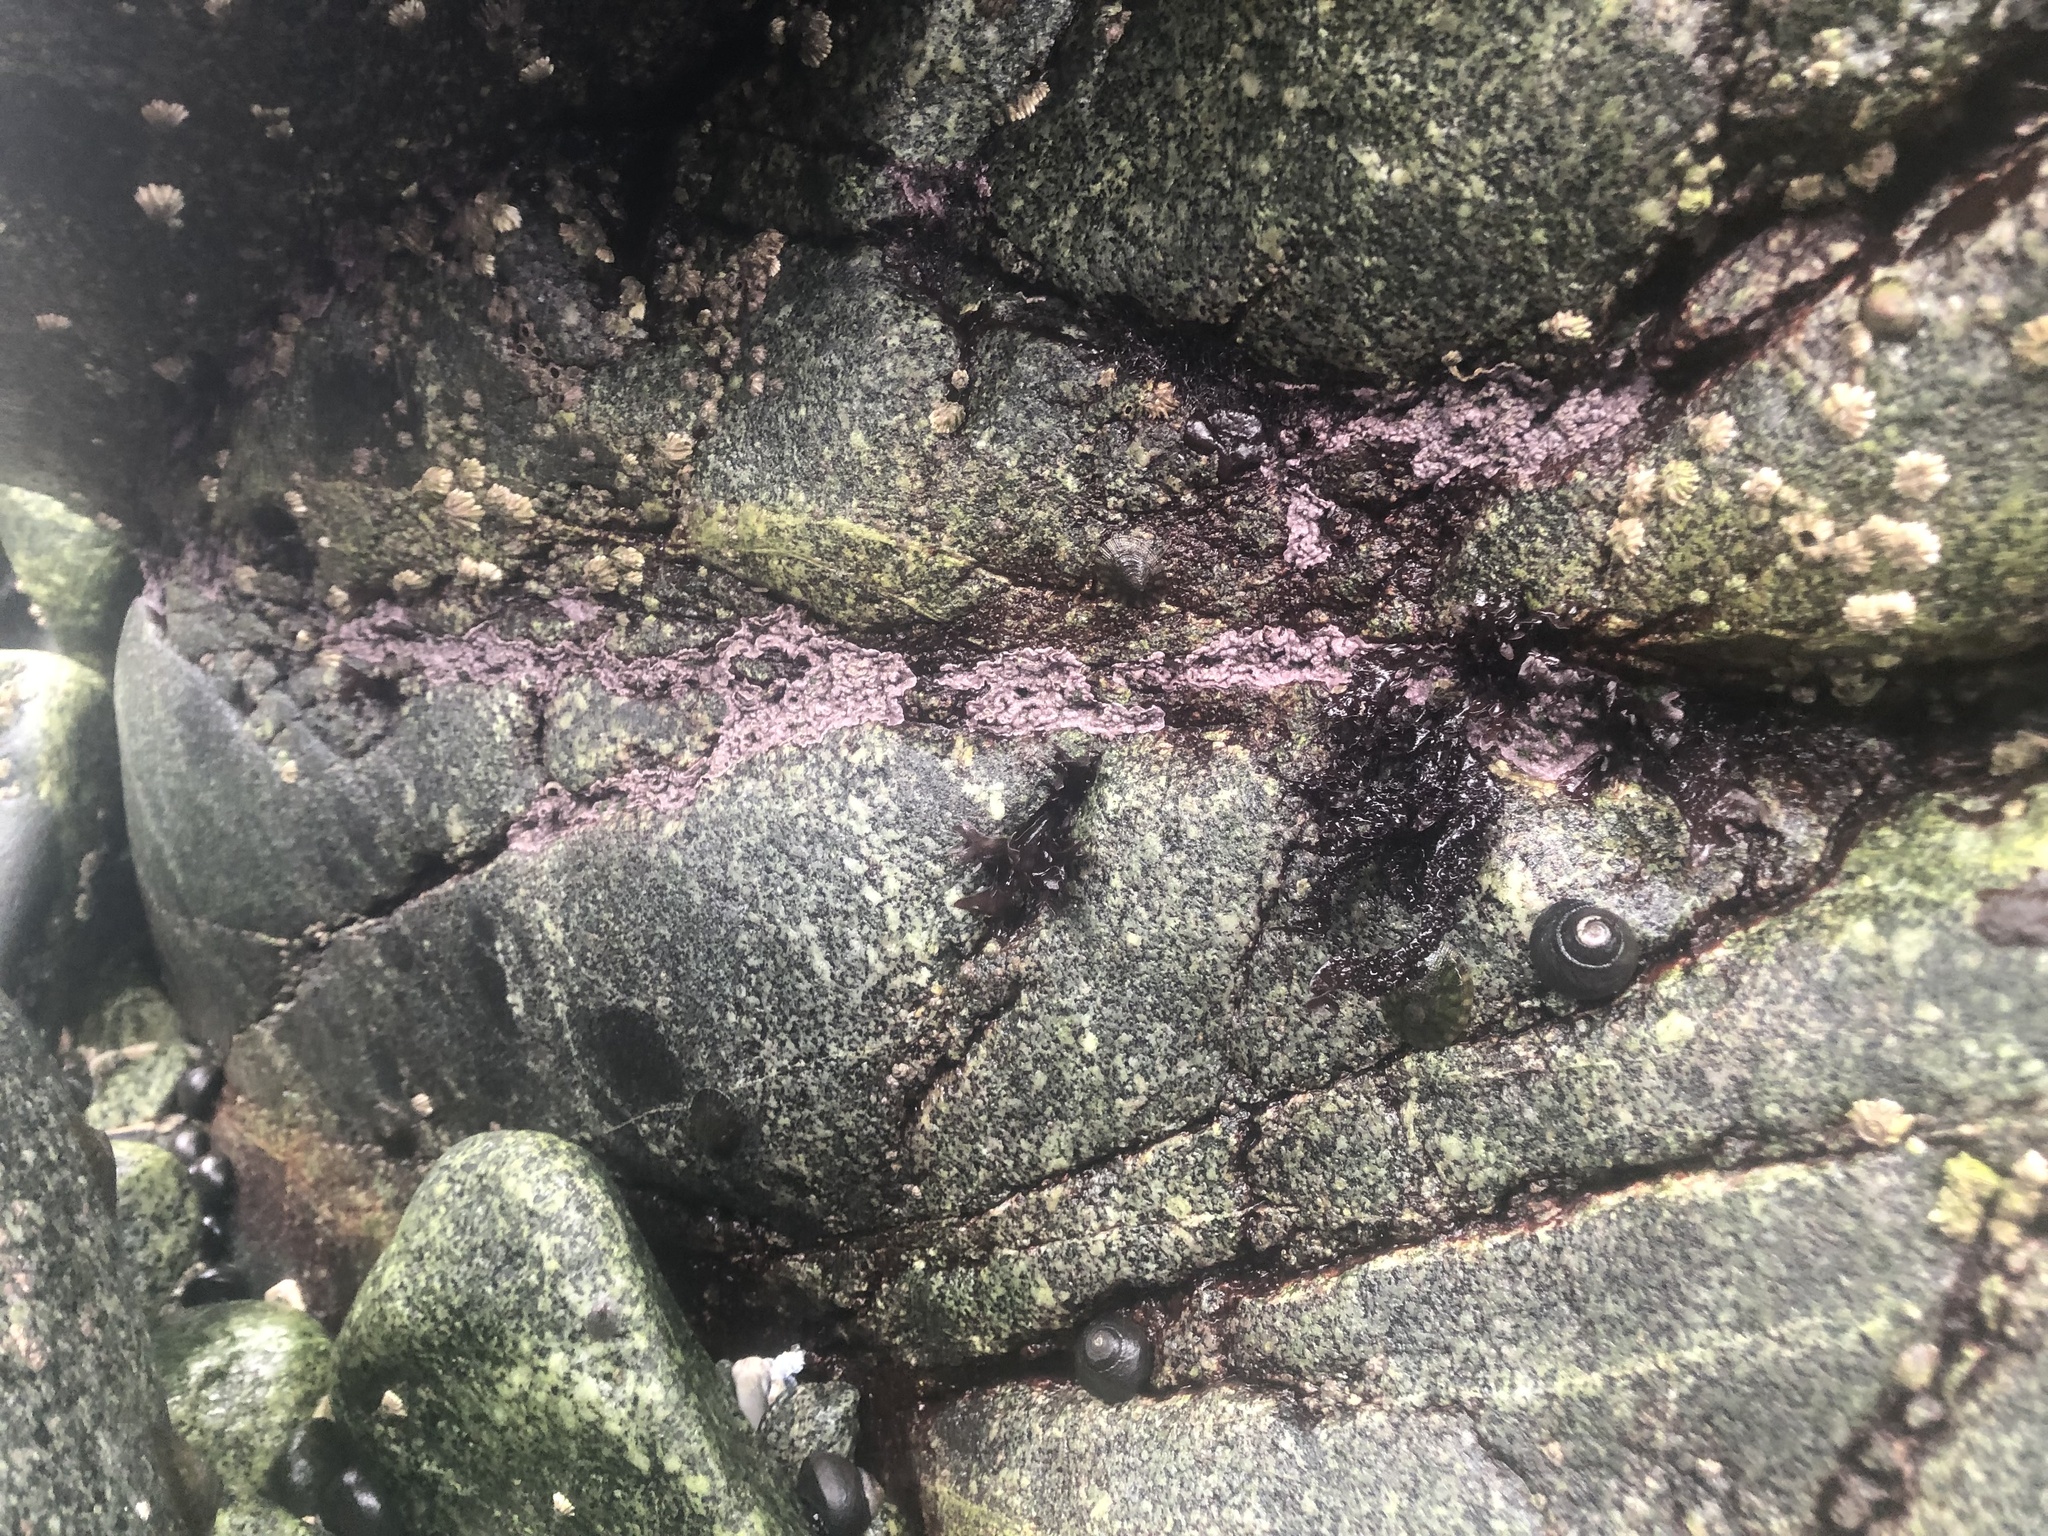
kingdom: Plantae
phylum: Rhodophyta
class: Florideophyceae
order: Corallinales
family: Corallinaceae
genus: Chamberlainium
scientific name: Chamberlainium tumidum
